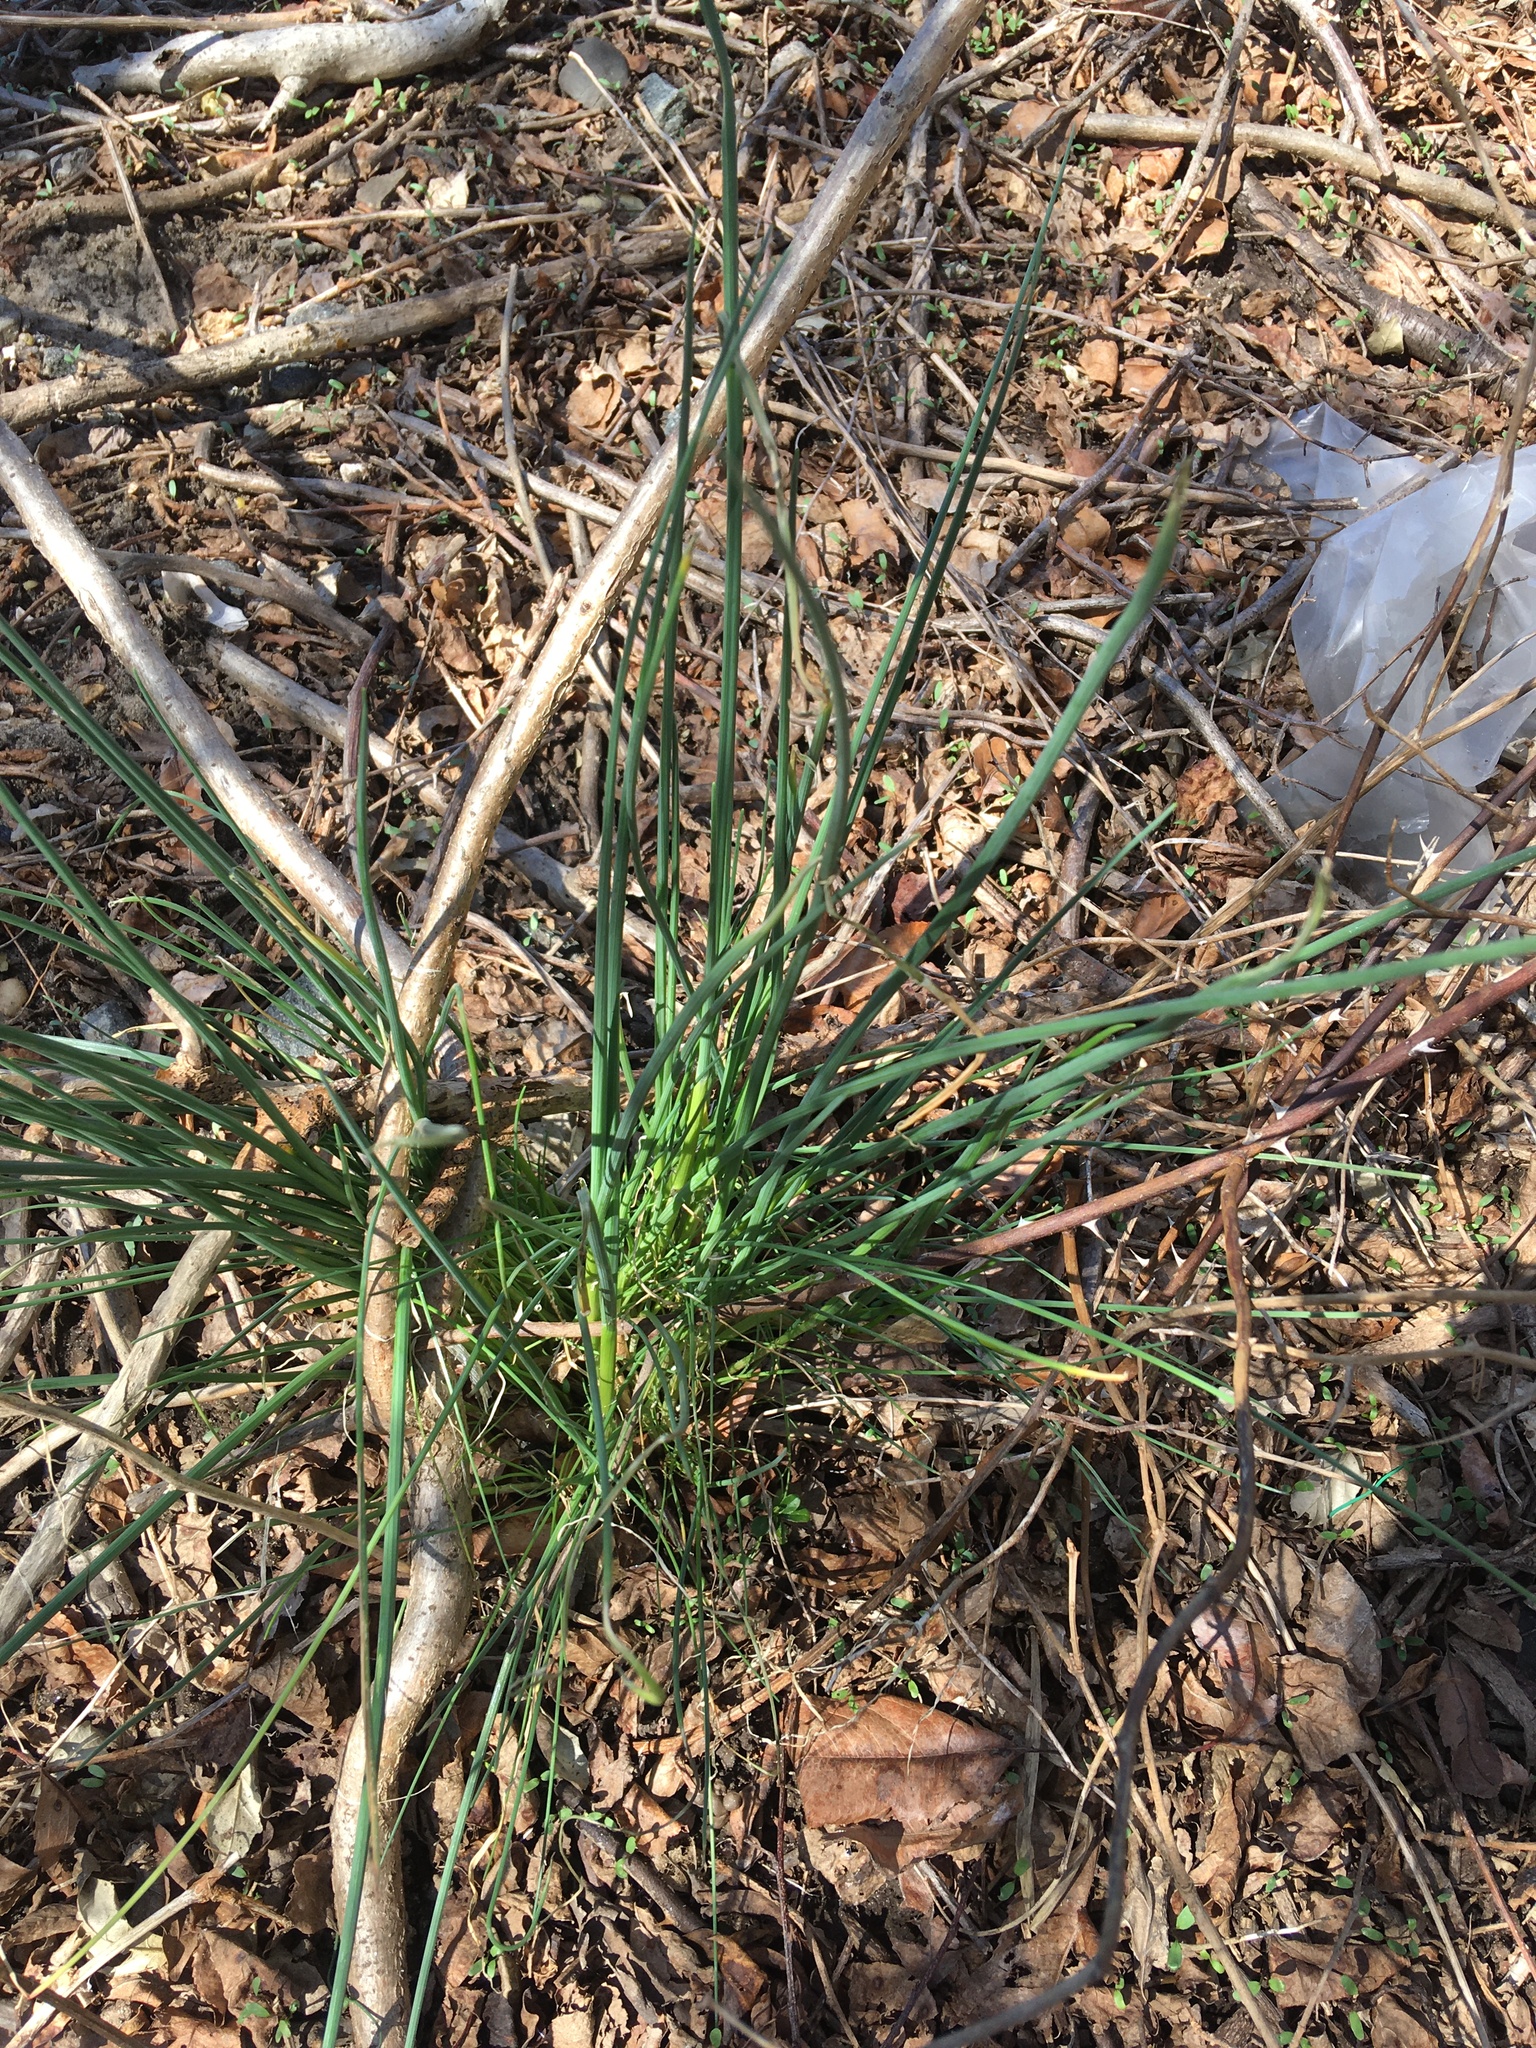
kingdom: Plantae
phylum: Tracheophyta
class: Liliopsida
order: Asparagales
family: Amaryllidaceae
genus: Allium
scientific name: Allium vineale
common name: Crow garlic
